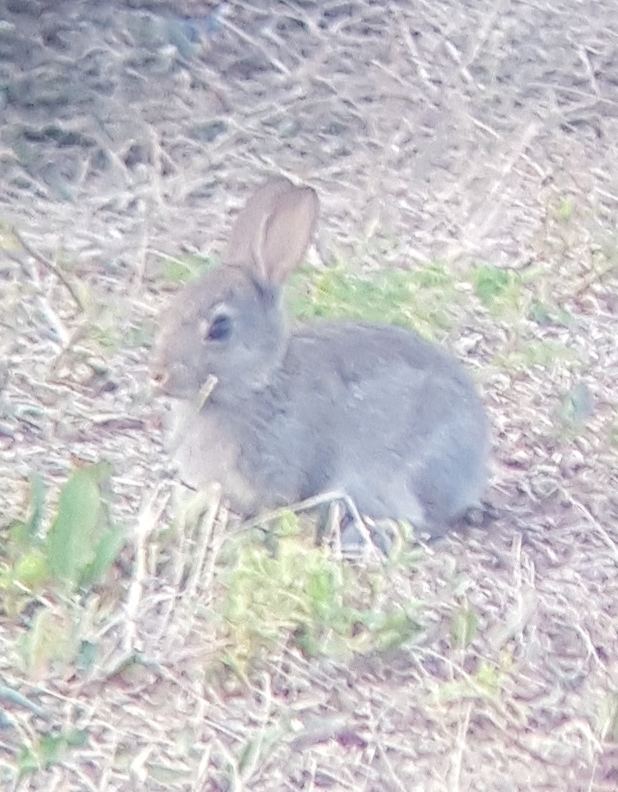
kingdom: Animalia
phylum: Chordata
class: Mammalia
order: Lagomorpha
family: Leporidae
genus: Oryctolagus
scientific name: Oryctolagus cuniculus
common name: European rabbit
